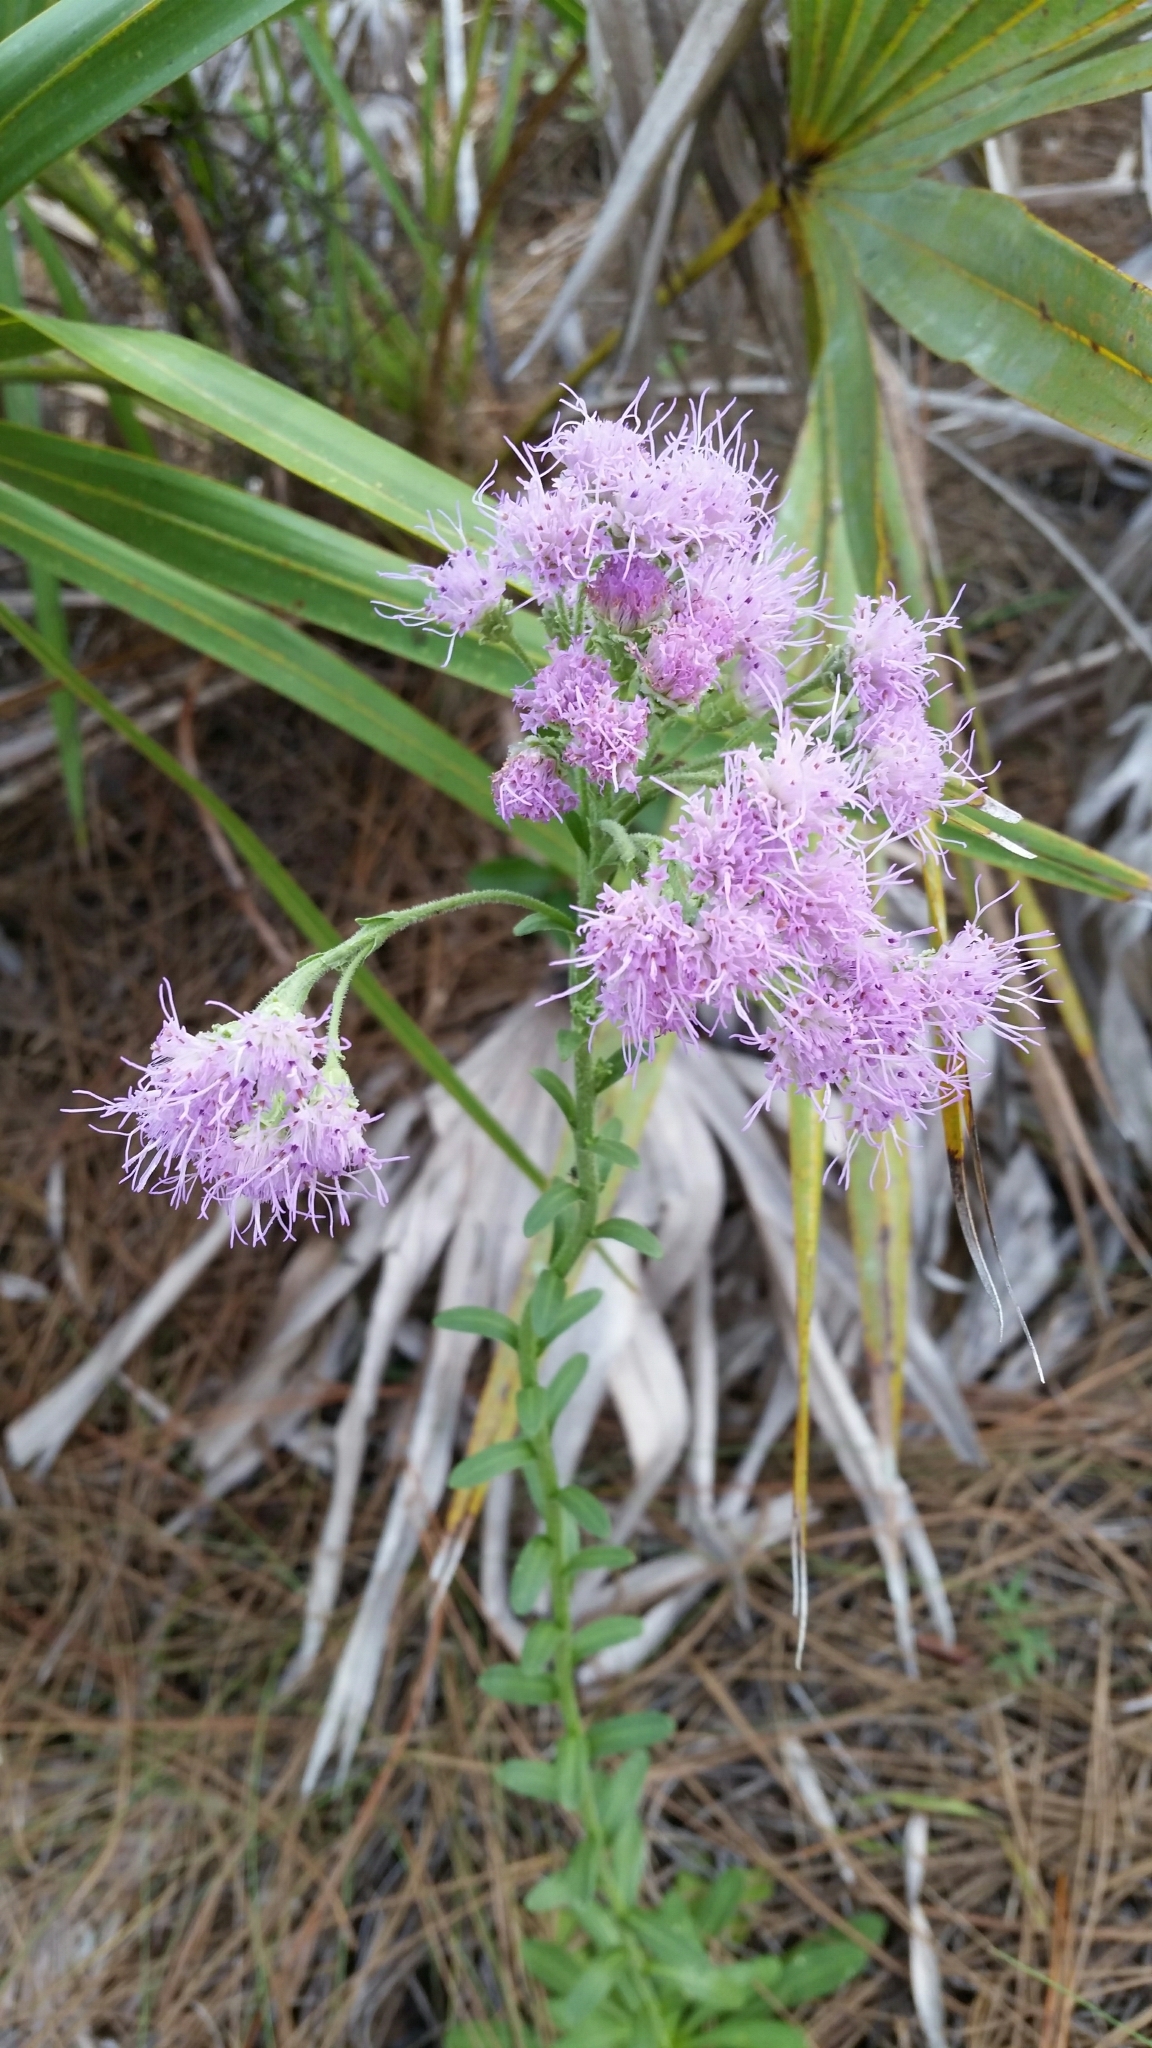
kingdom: Plantae
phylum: Tracheophyta
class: Magnoliopsida
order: Asterales
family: Asteraceae
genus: Carphephorus
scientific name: Carphephorus corymbosus
